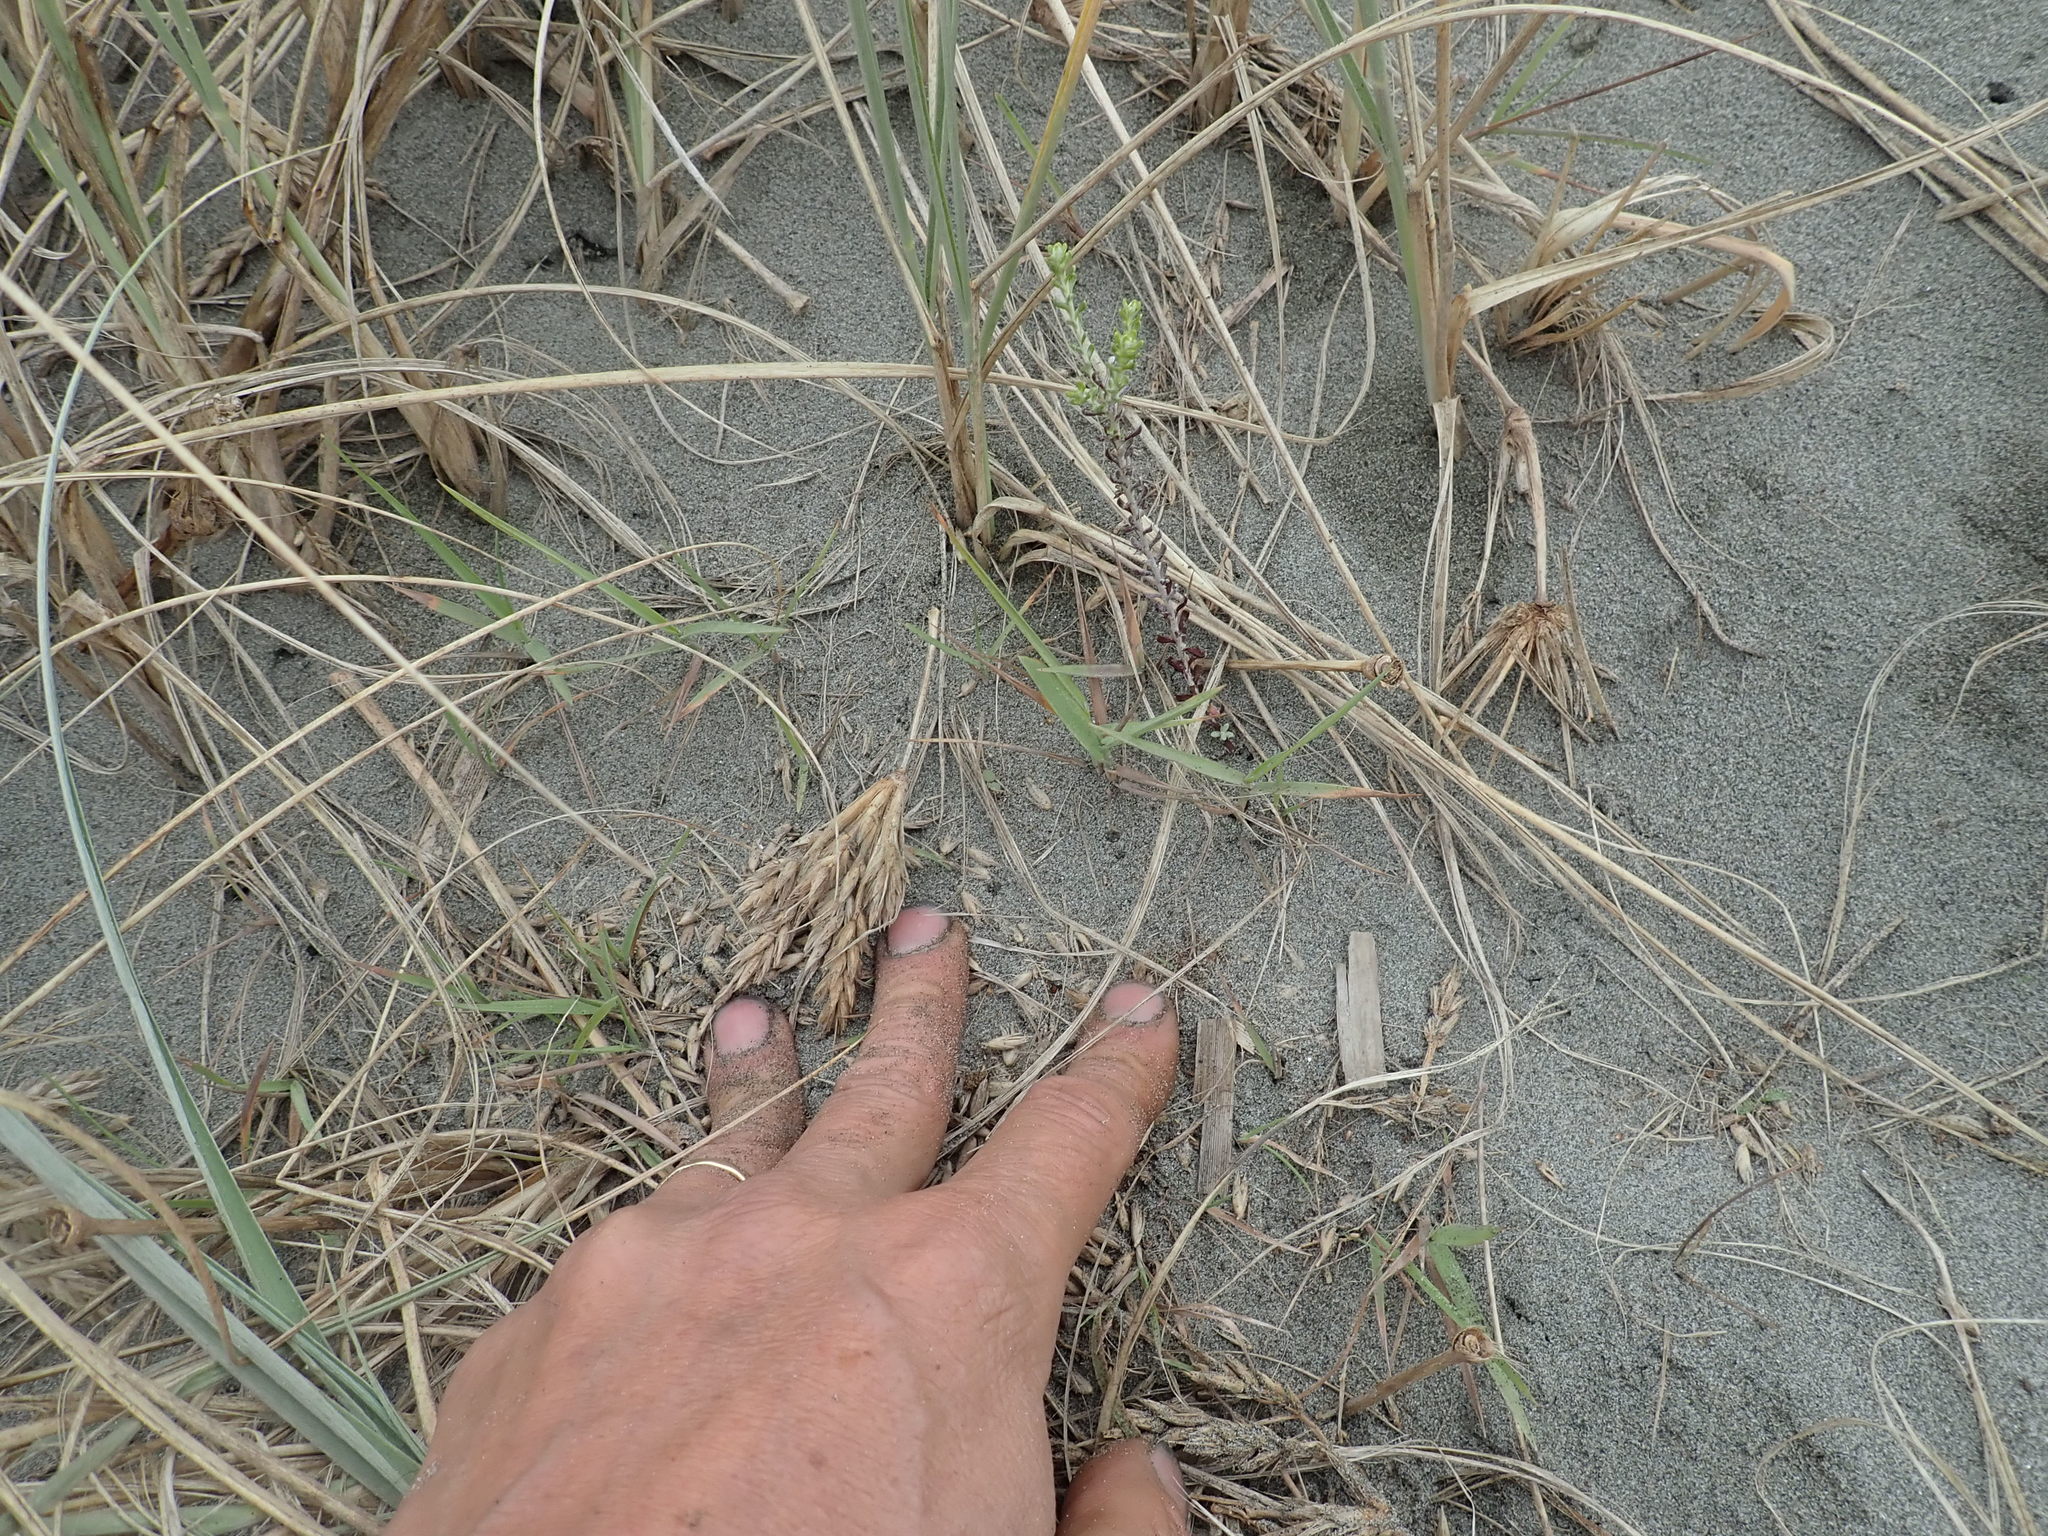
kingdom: Plantae
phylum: Tracheophyta
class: Magnoliopsida
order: Asterales
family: Asteraceae
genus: Ozothamnus
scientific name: Ozothamnus leptophyllus
